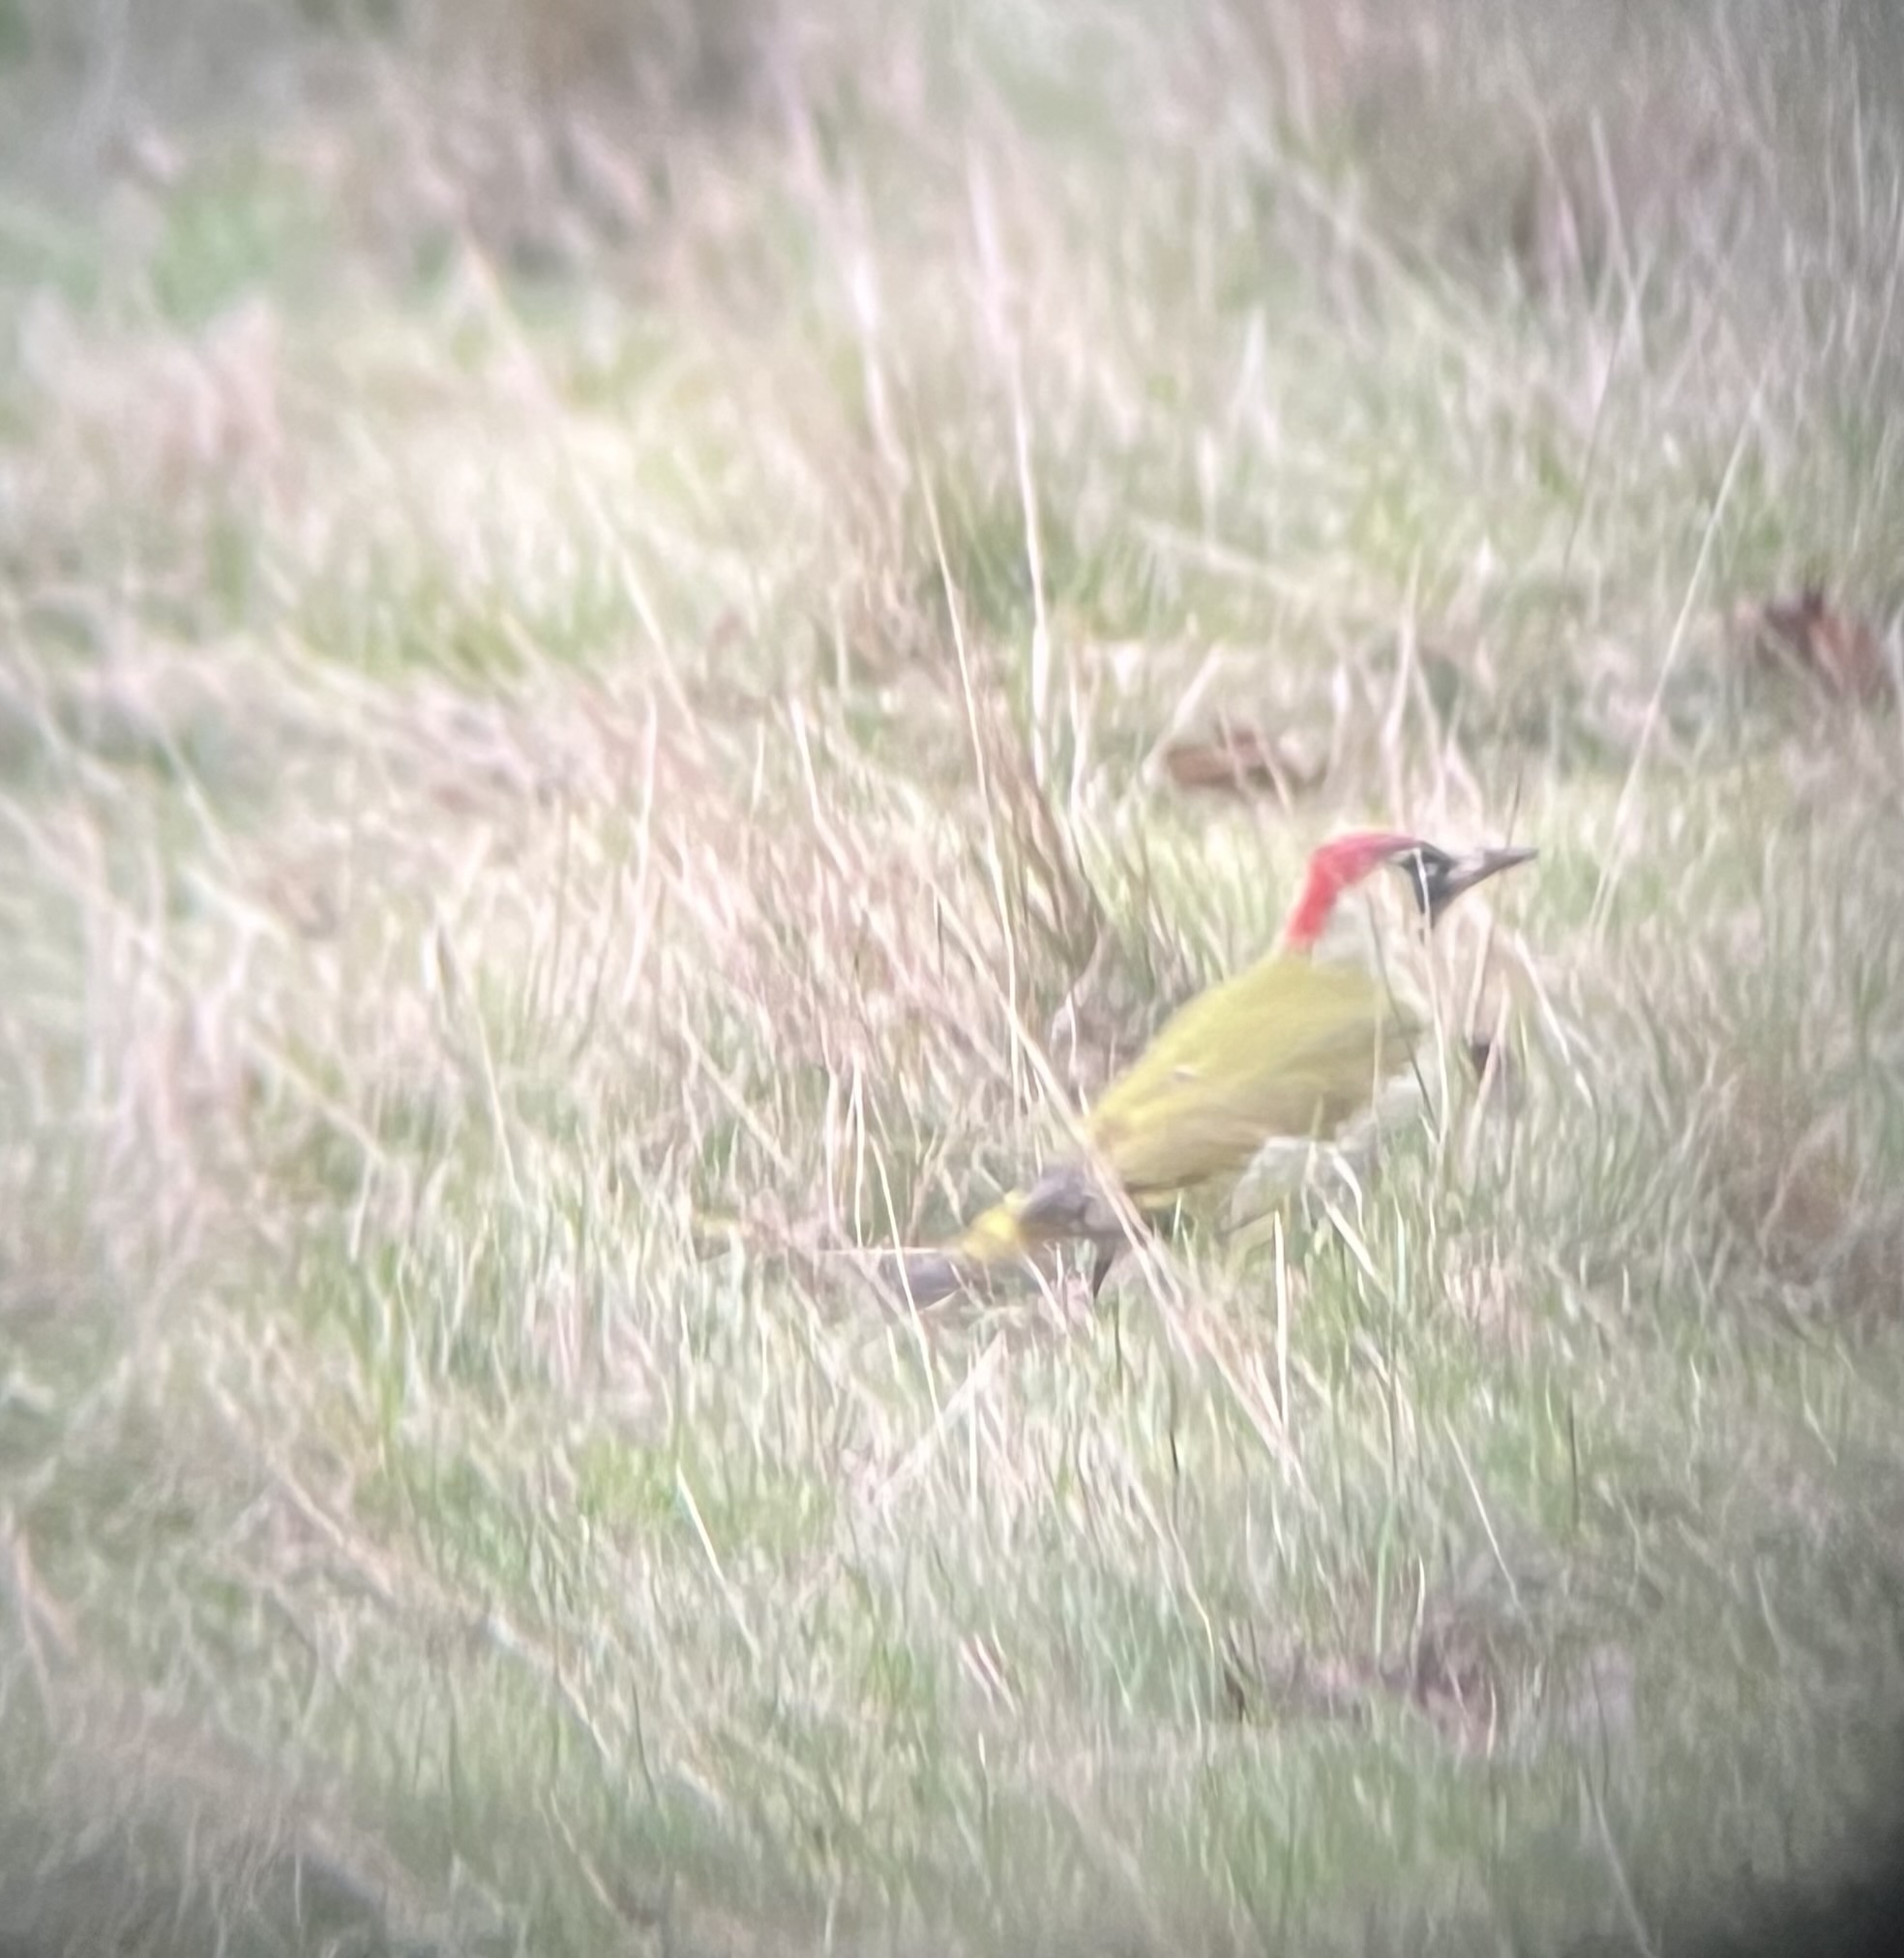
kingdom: Animalia
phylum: Chordata
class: Aves
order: Piciformes
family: Picidae
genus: Picus
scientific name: Picus viridis
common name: European green woodpecker
